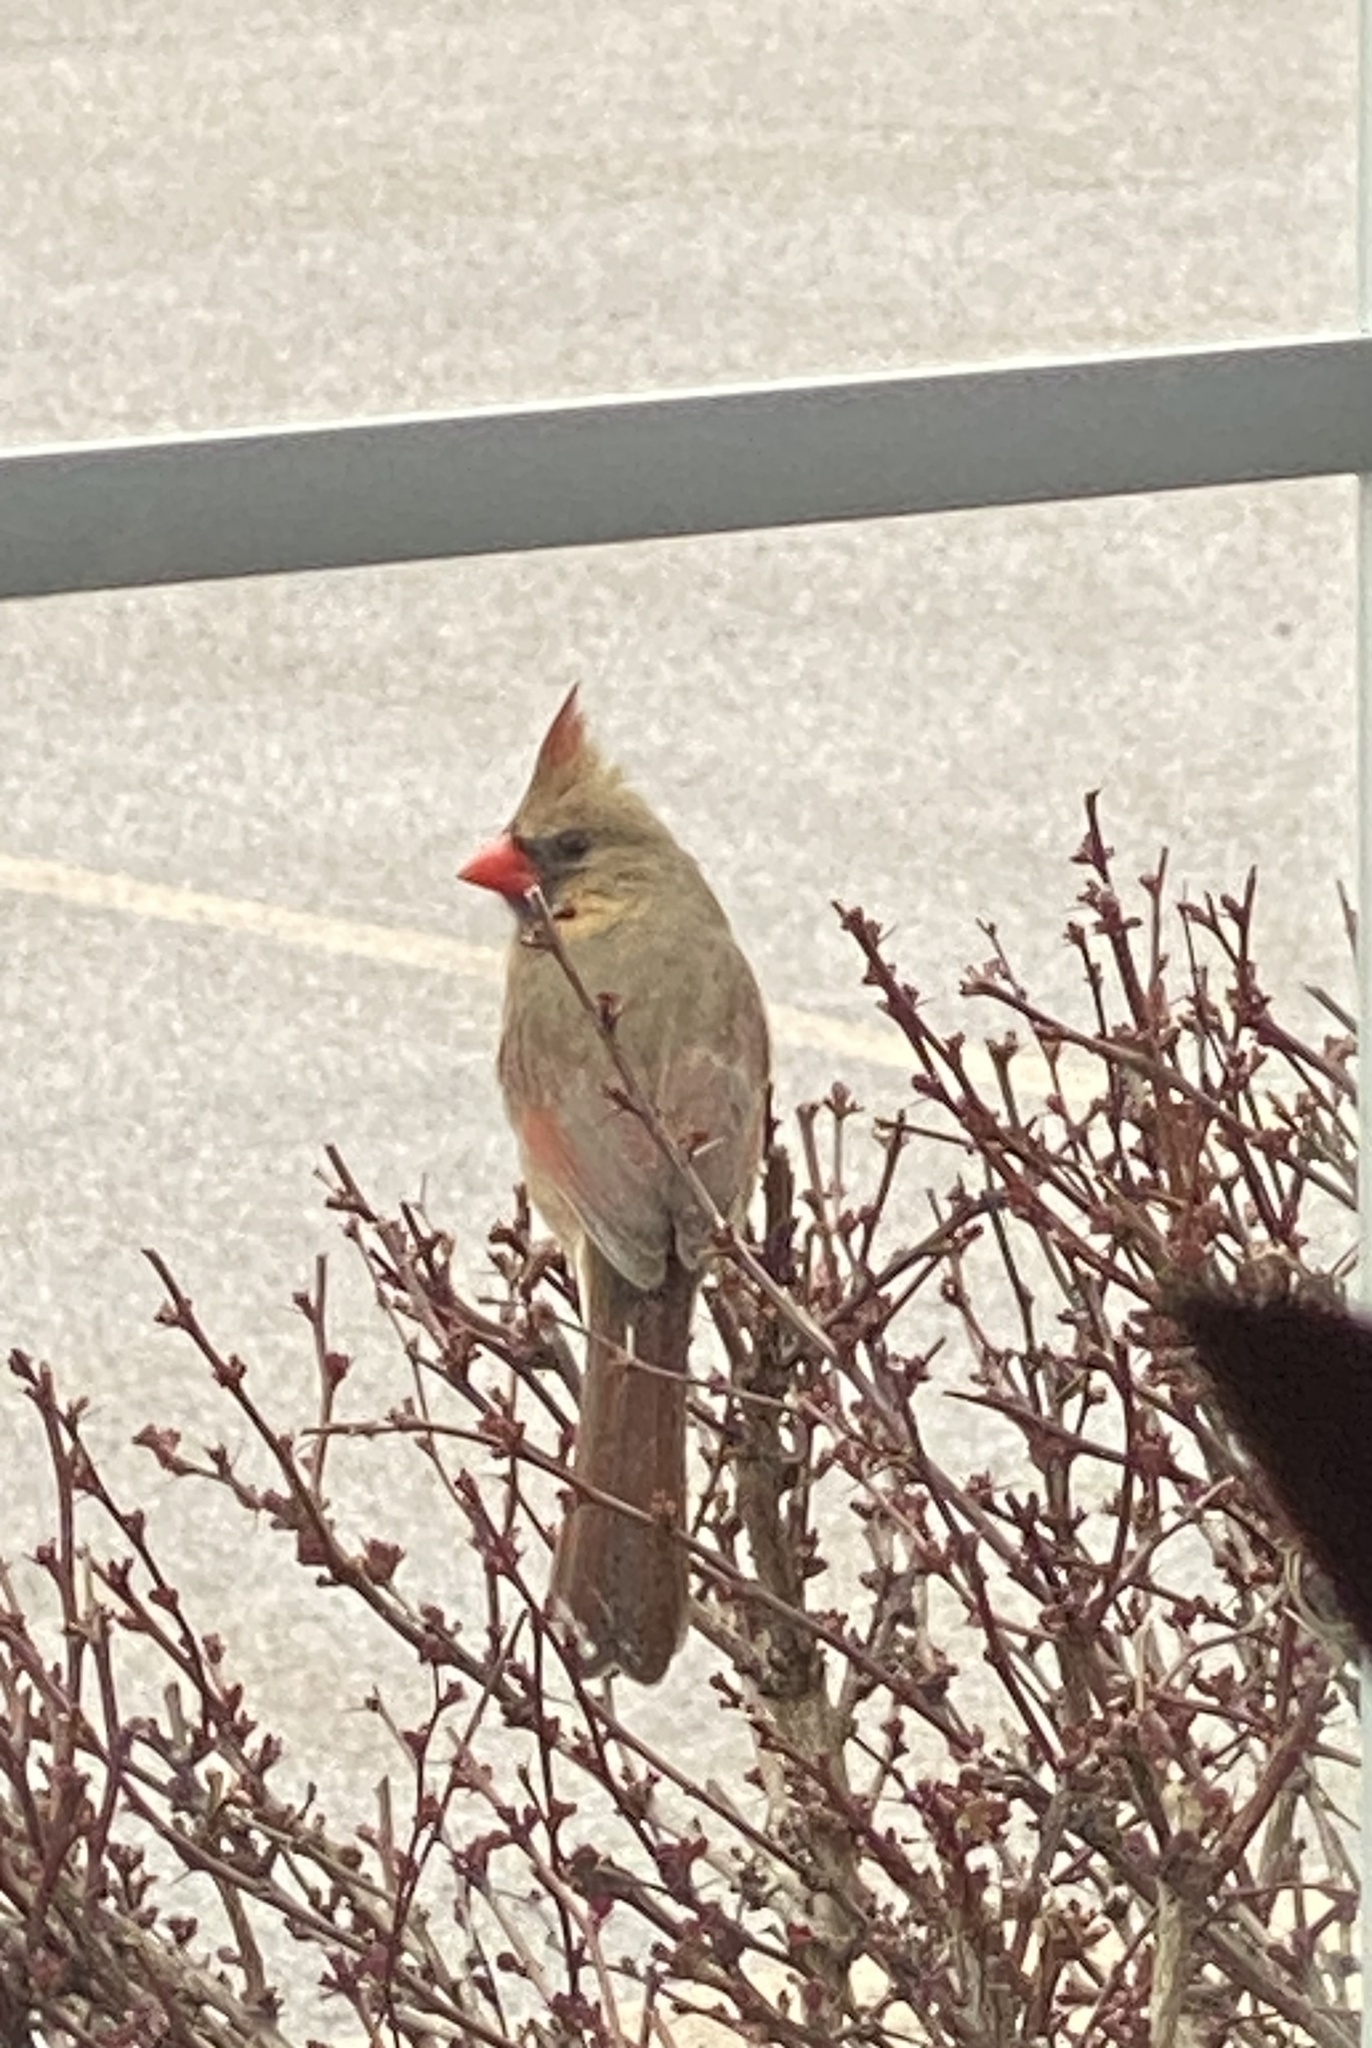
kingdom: Animalia
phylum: Chordata
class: Aves
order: Passeriformes
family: Cardinalidae
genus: Cardinalis
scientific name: Cardinalis cardinalis
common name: Northern cardinal
